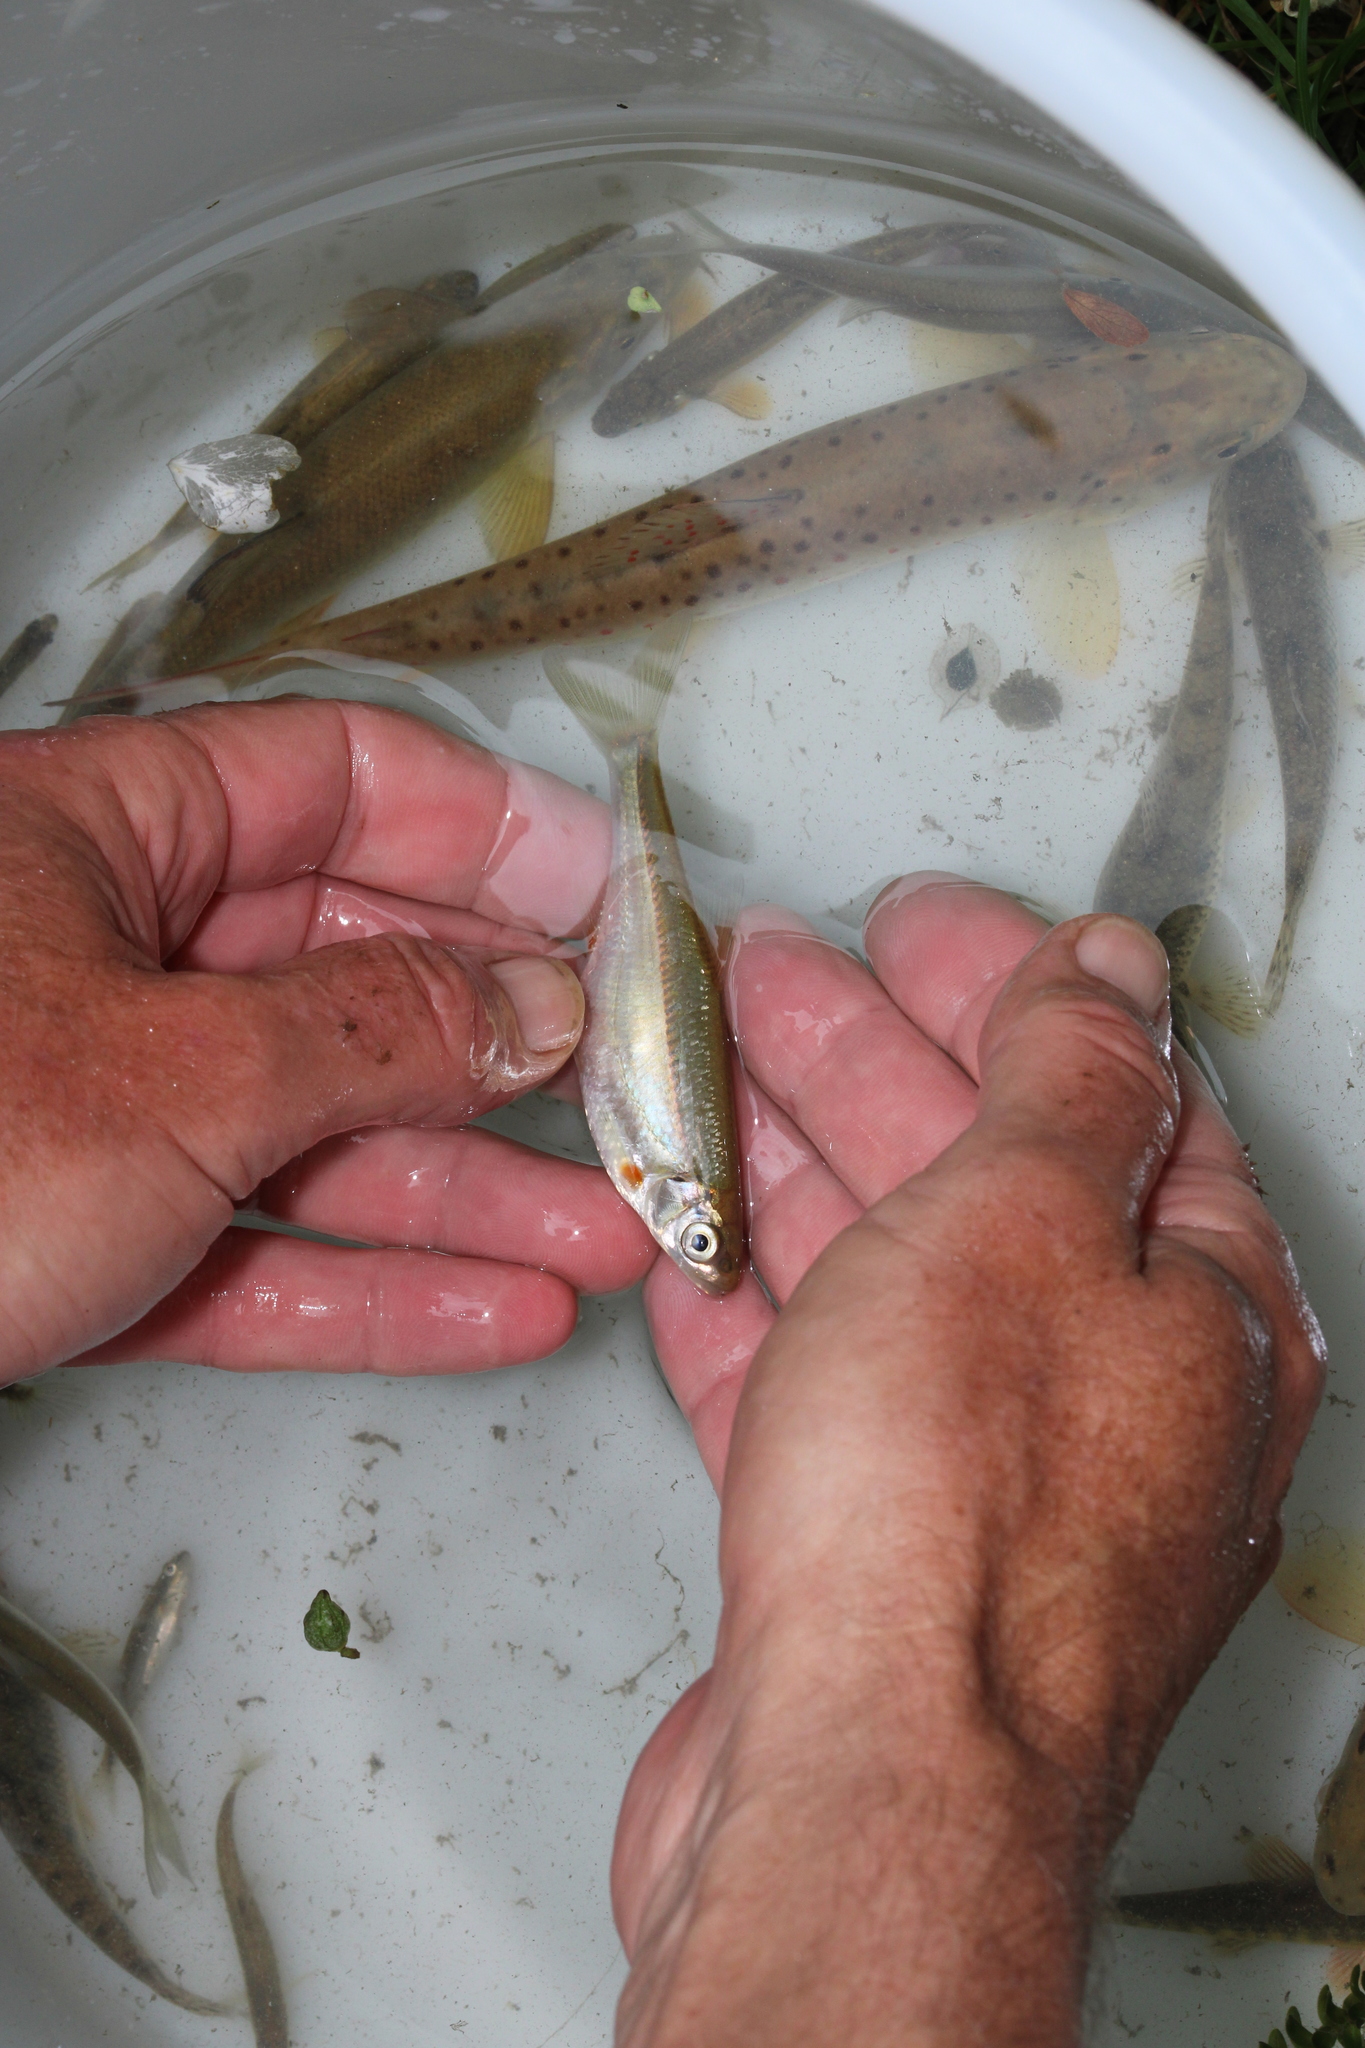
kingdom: Animalia
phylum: Chordata
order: Cypriniformes
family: Cyprinidae
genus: Alburnoides
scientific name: Alburnoides bipunctatus
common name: Spirlin
